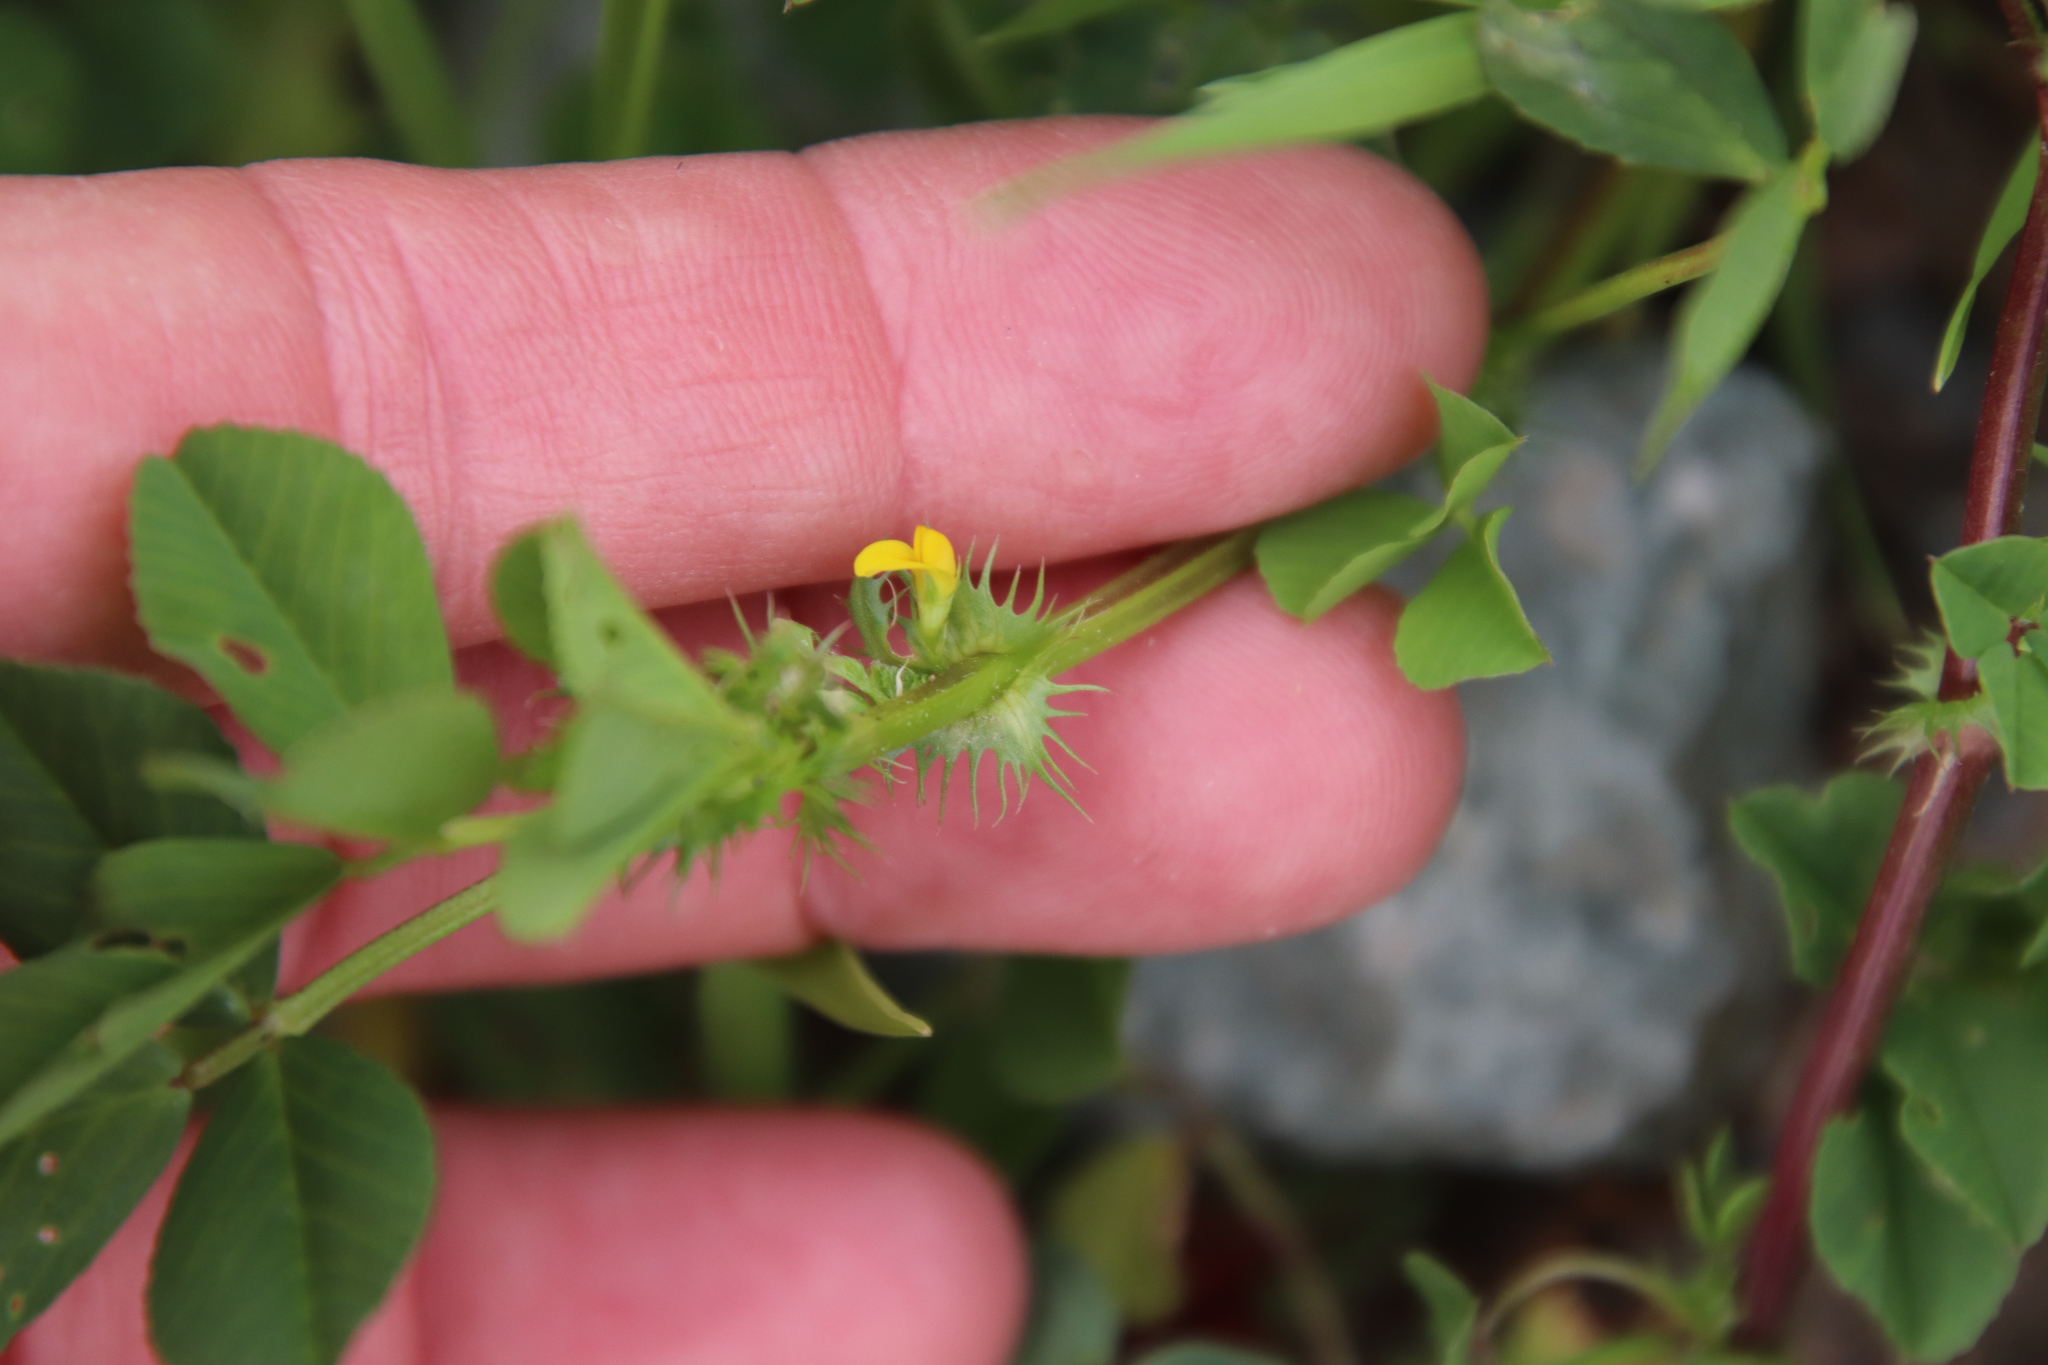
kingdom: Plantae
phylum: Tracheophyta
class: Magnoliopsida
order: Fabales
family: Fabaceae
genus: Medicago
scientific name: Medicago polymorpha
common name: Burclover
